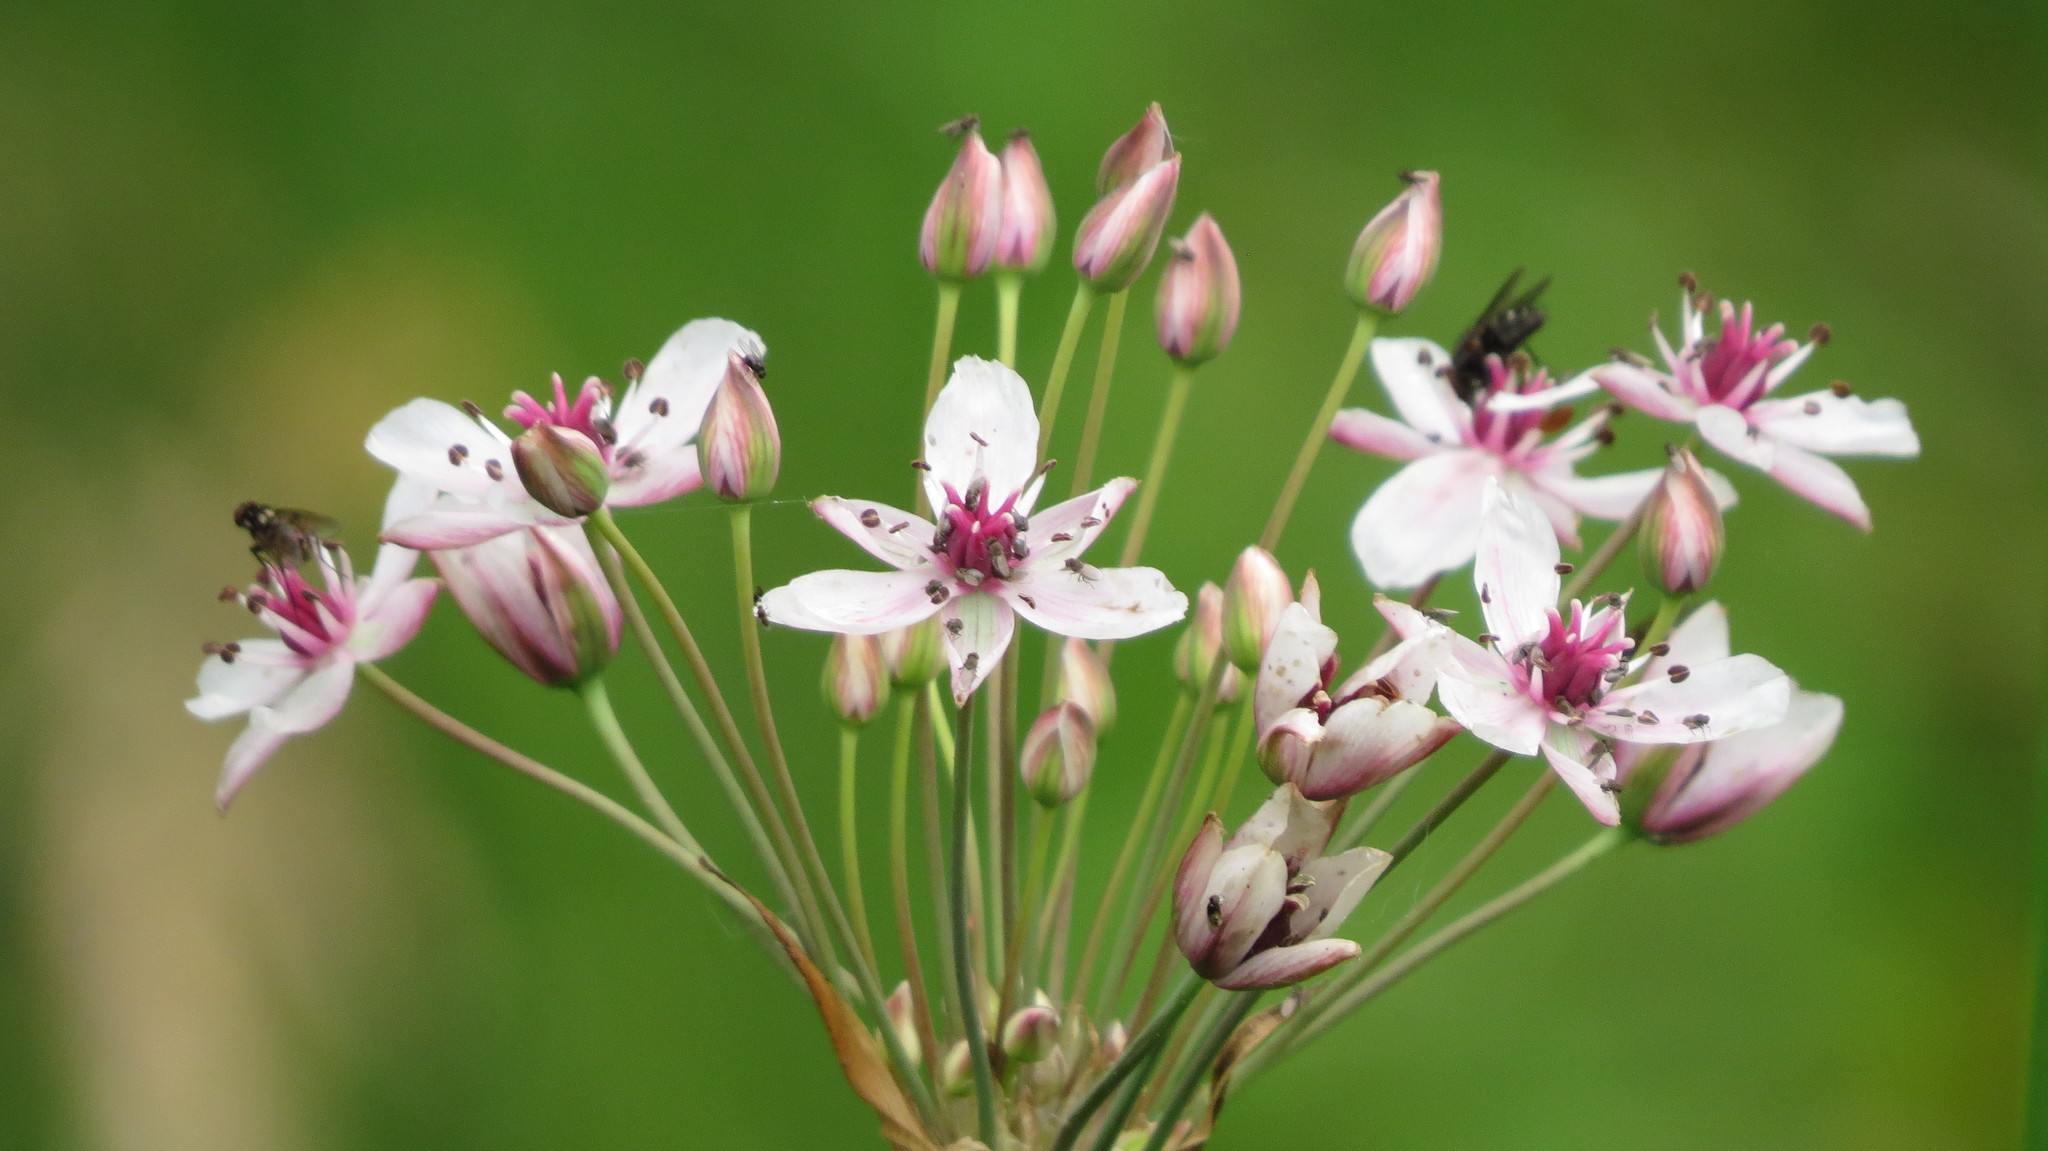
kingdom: Plantae
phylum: Tracheophyta
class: Liliopsida
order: Alismatales
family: Butomaceae
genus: Butomus
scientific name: Butomus umbellatus
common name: Flowering-rush
